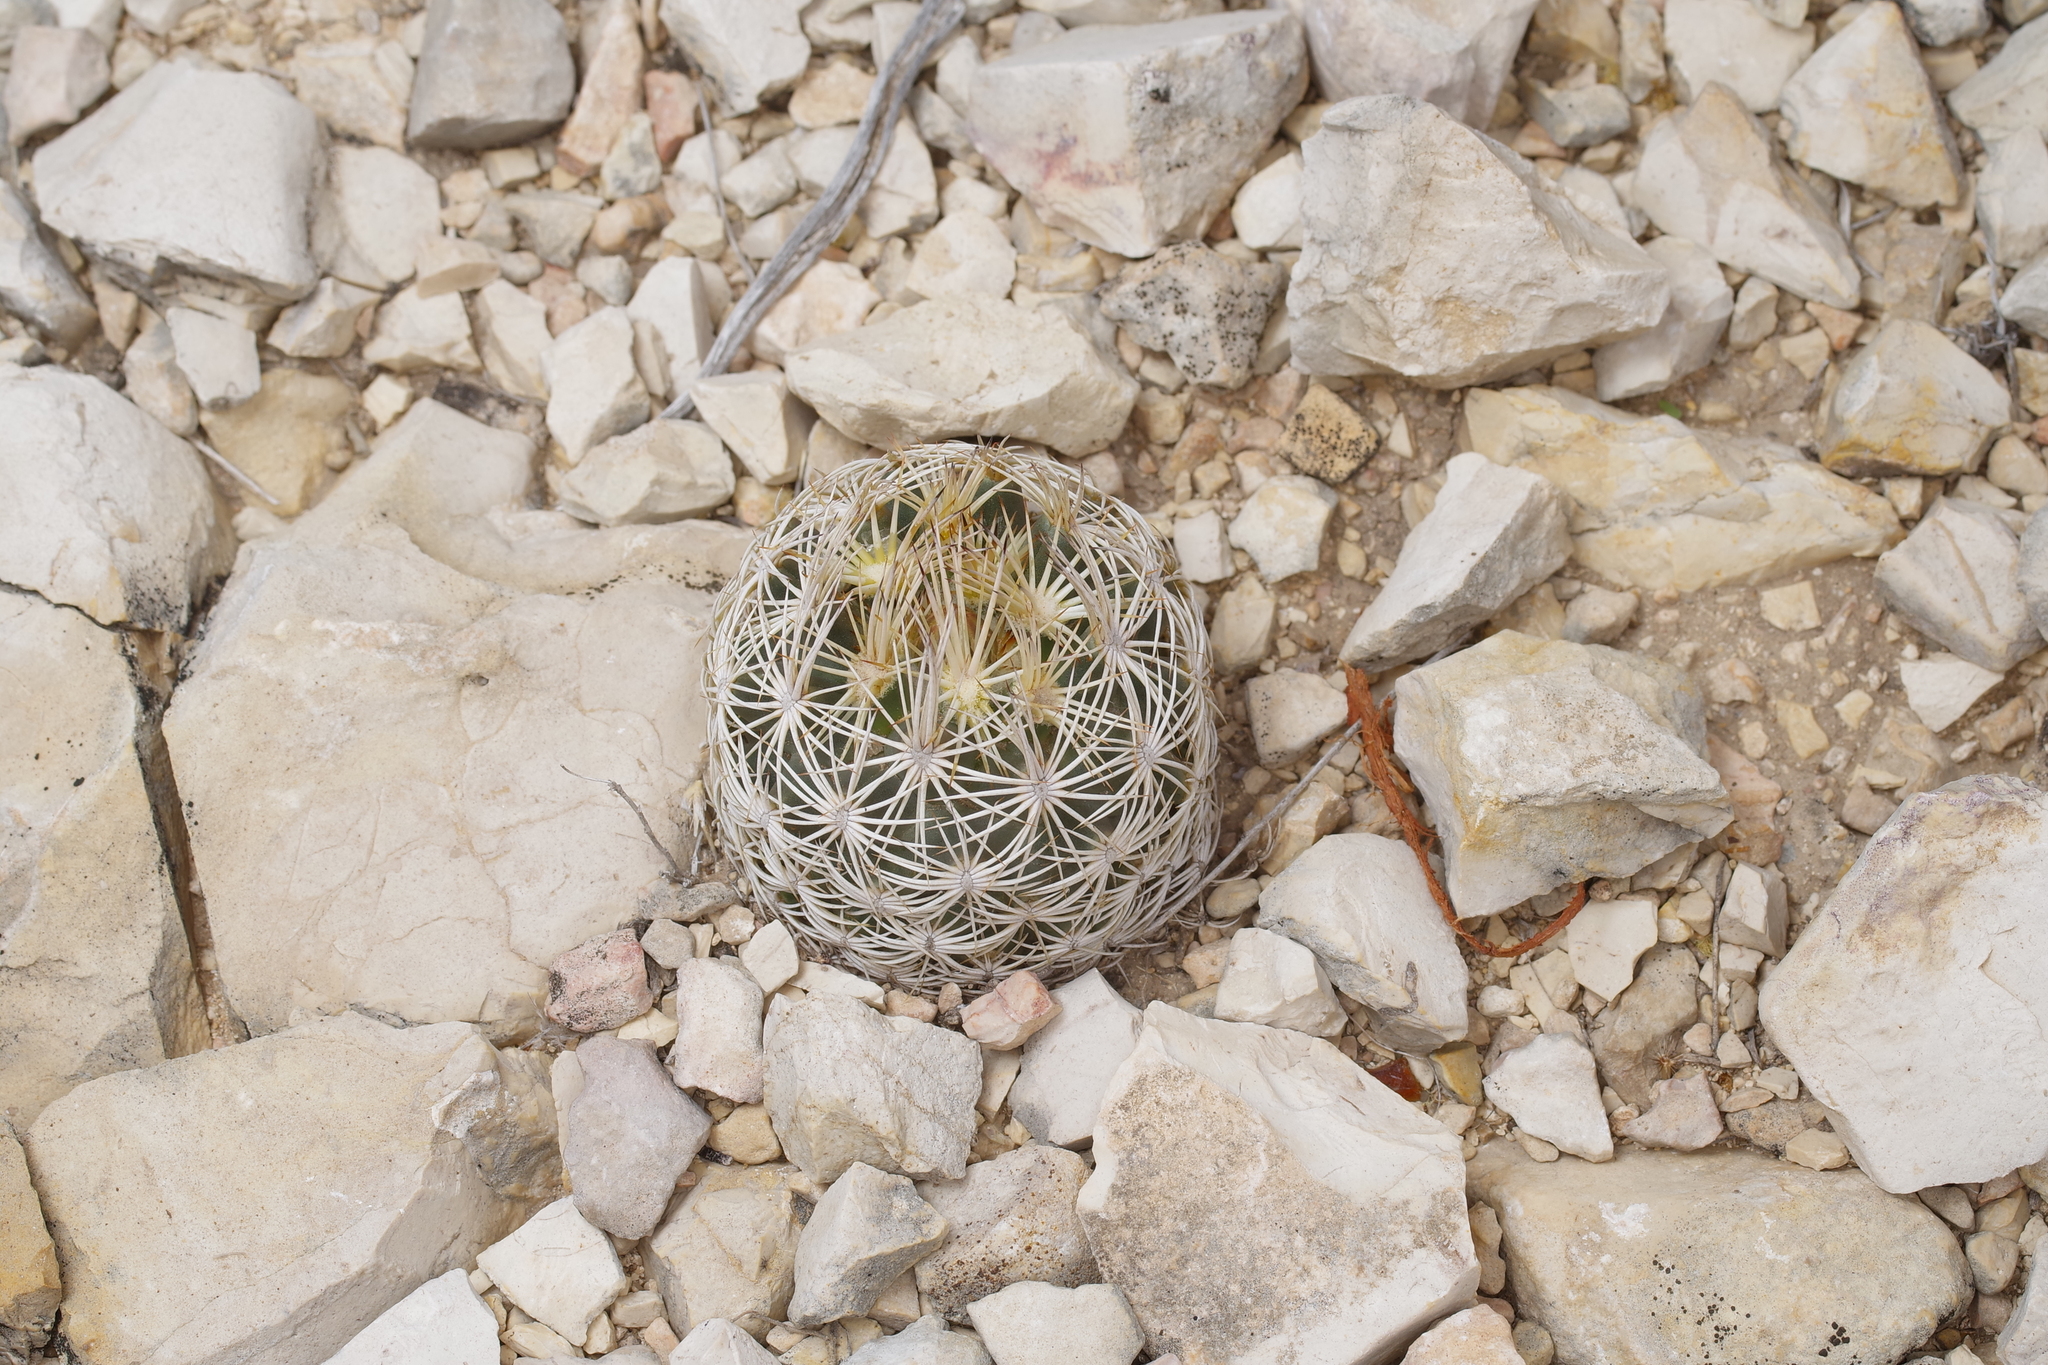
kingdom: Plantae
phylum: Tracheophyta
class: Magnoliopsida
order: Caryophyllales
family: Cactaceae
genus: Coryphantha
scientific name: Coryphantha echinus
